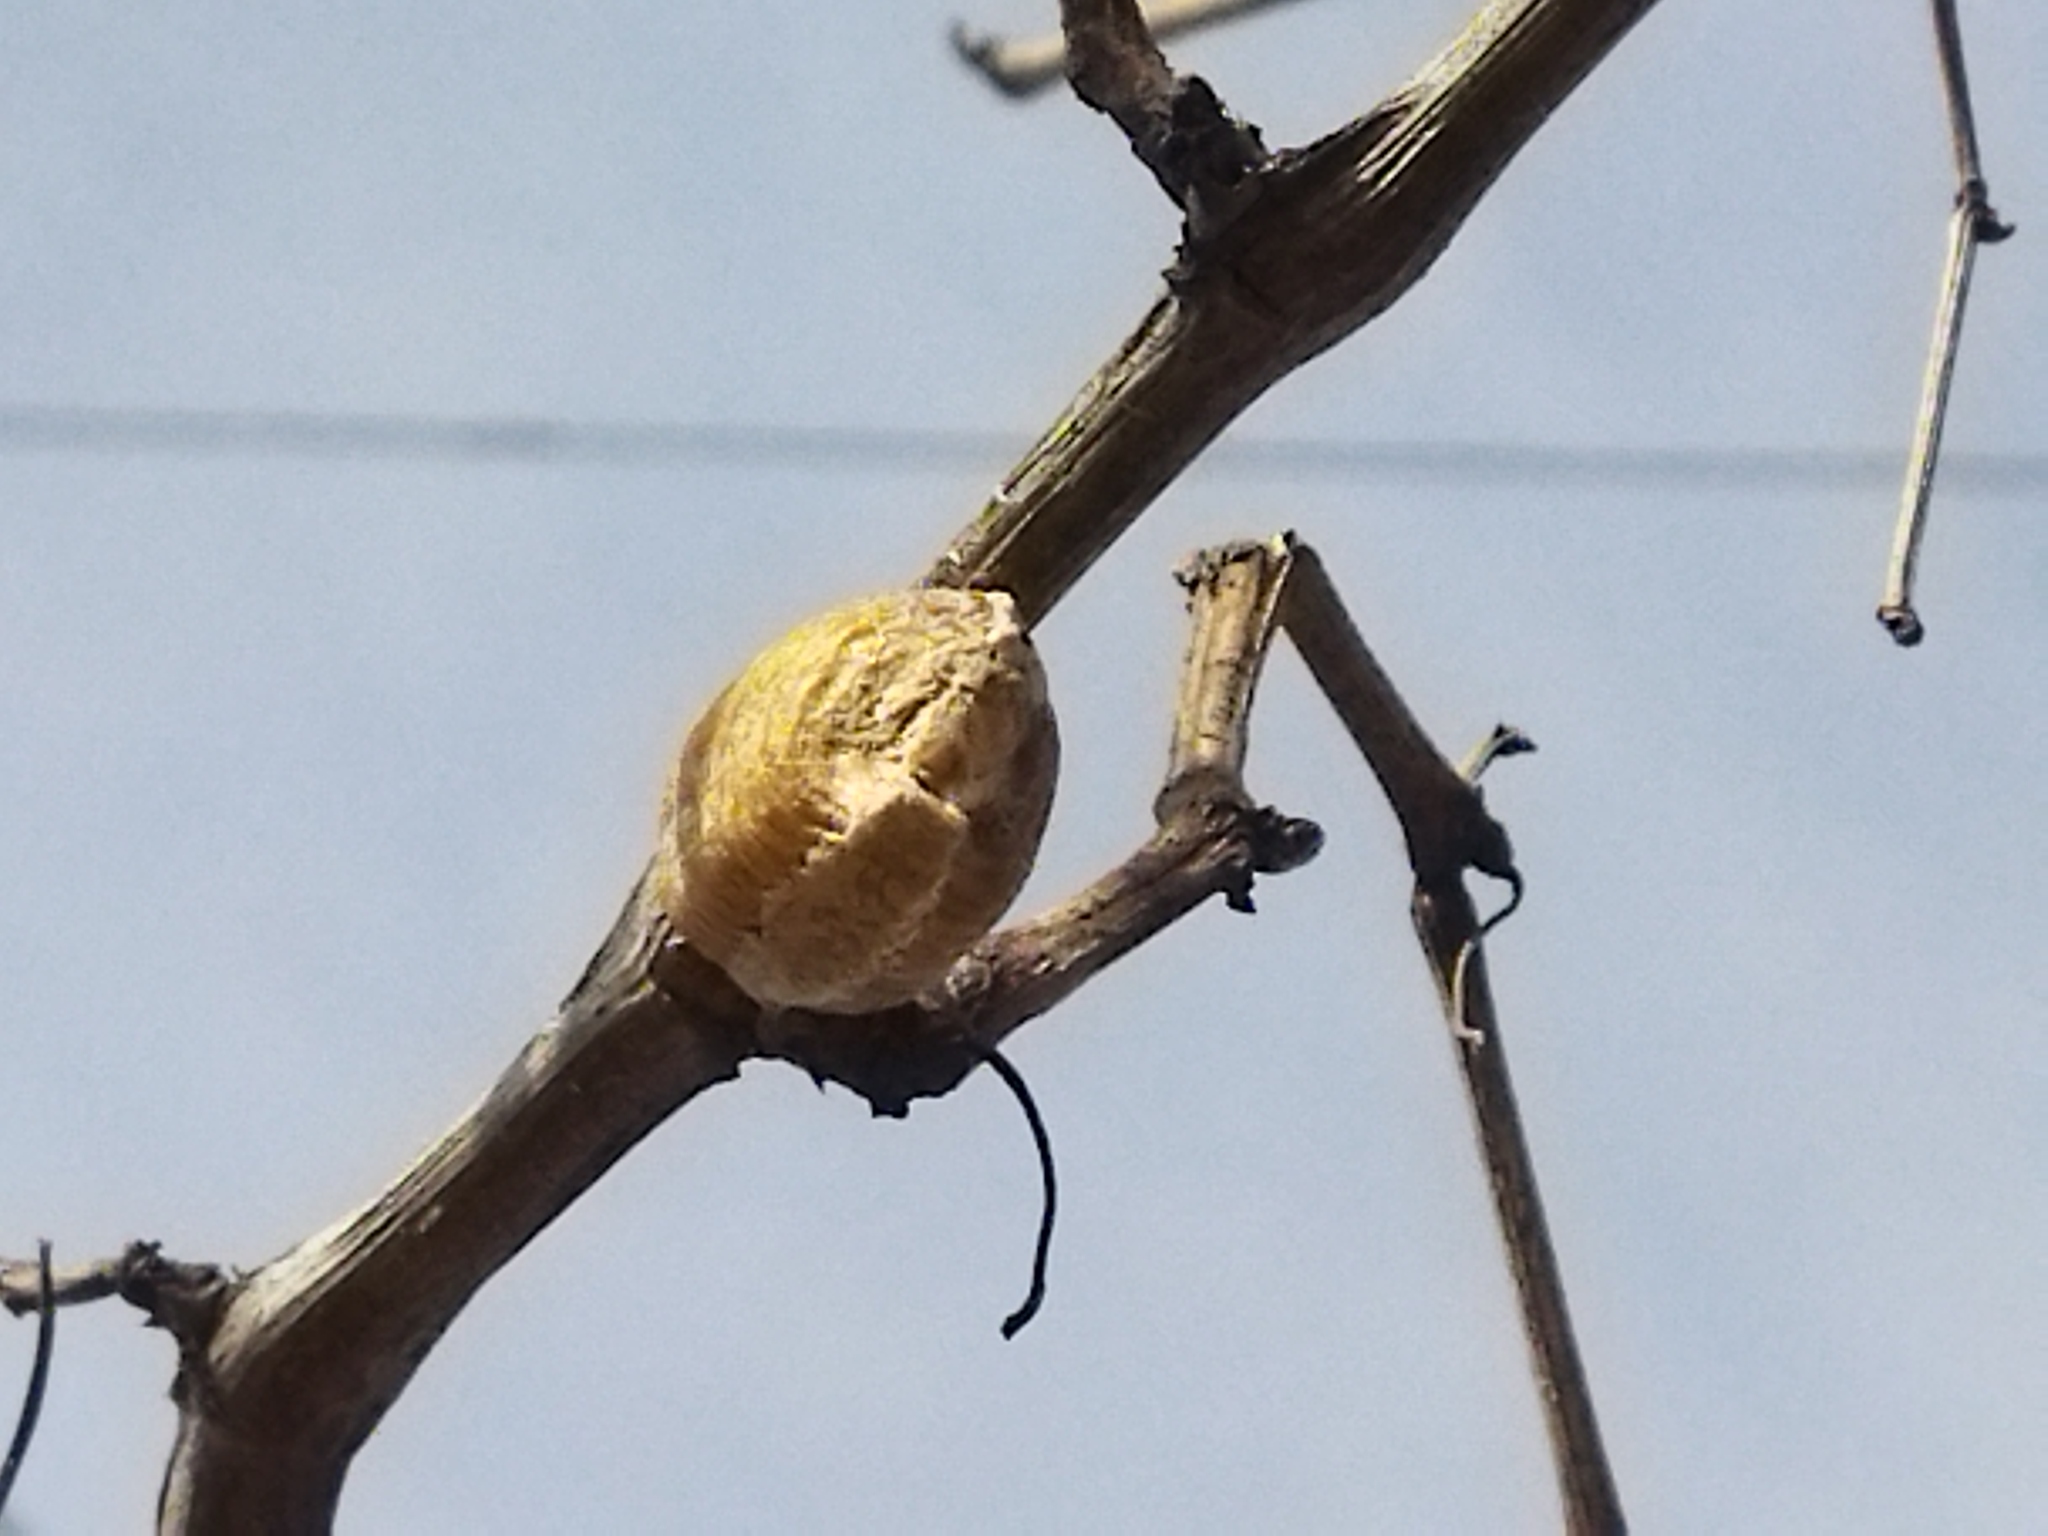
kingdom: Animalia
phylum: Arthropoda
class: Insecta
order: Mantodea
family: Mantidae
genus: Hierodula
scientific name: Hierodula transcaucasica
